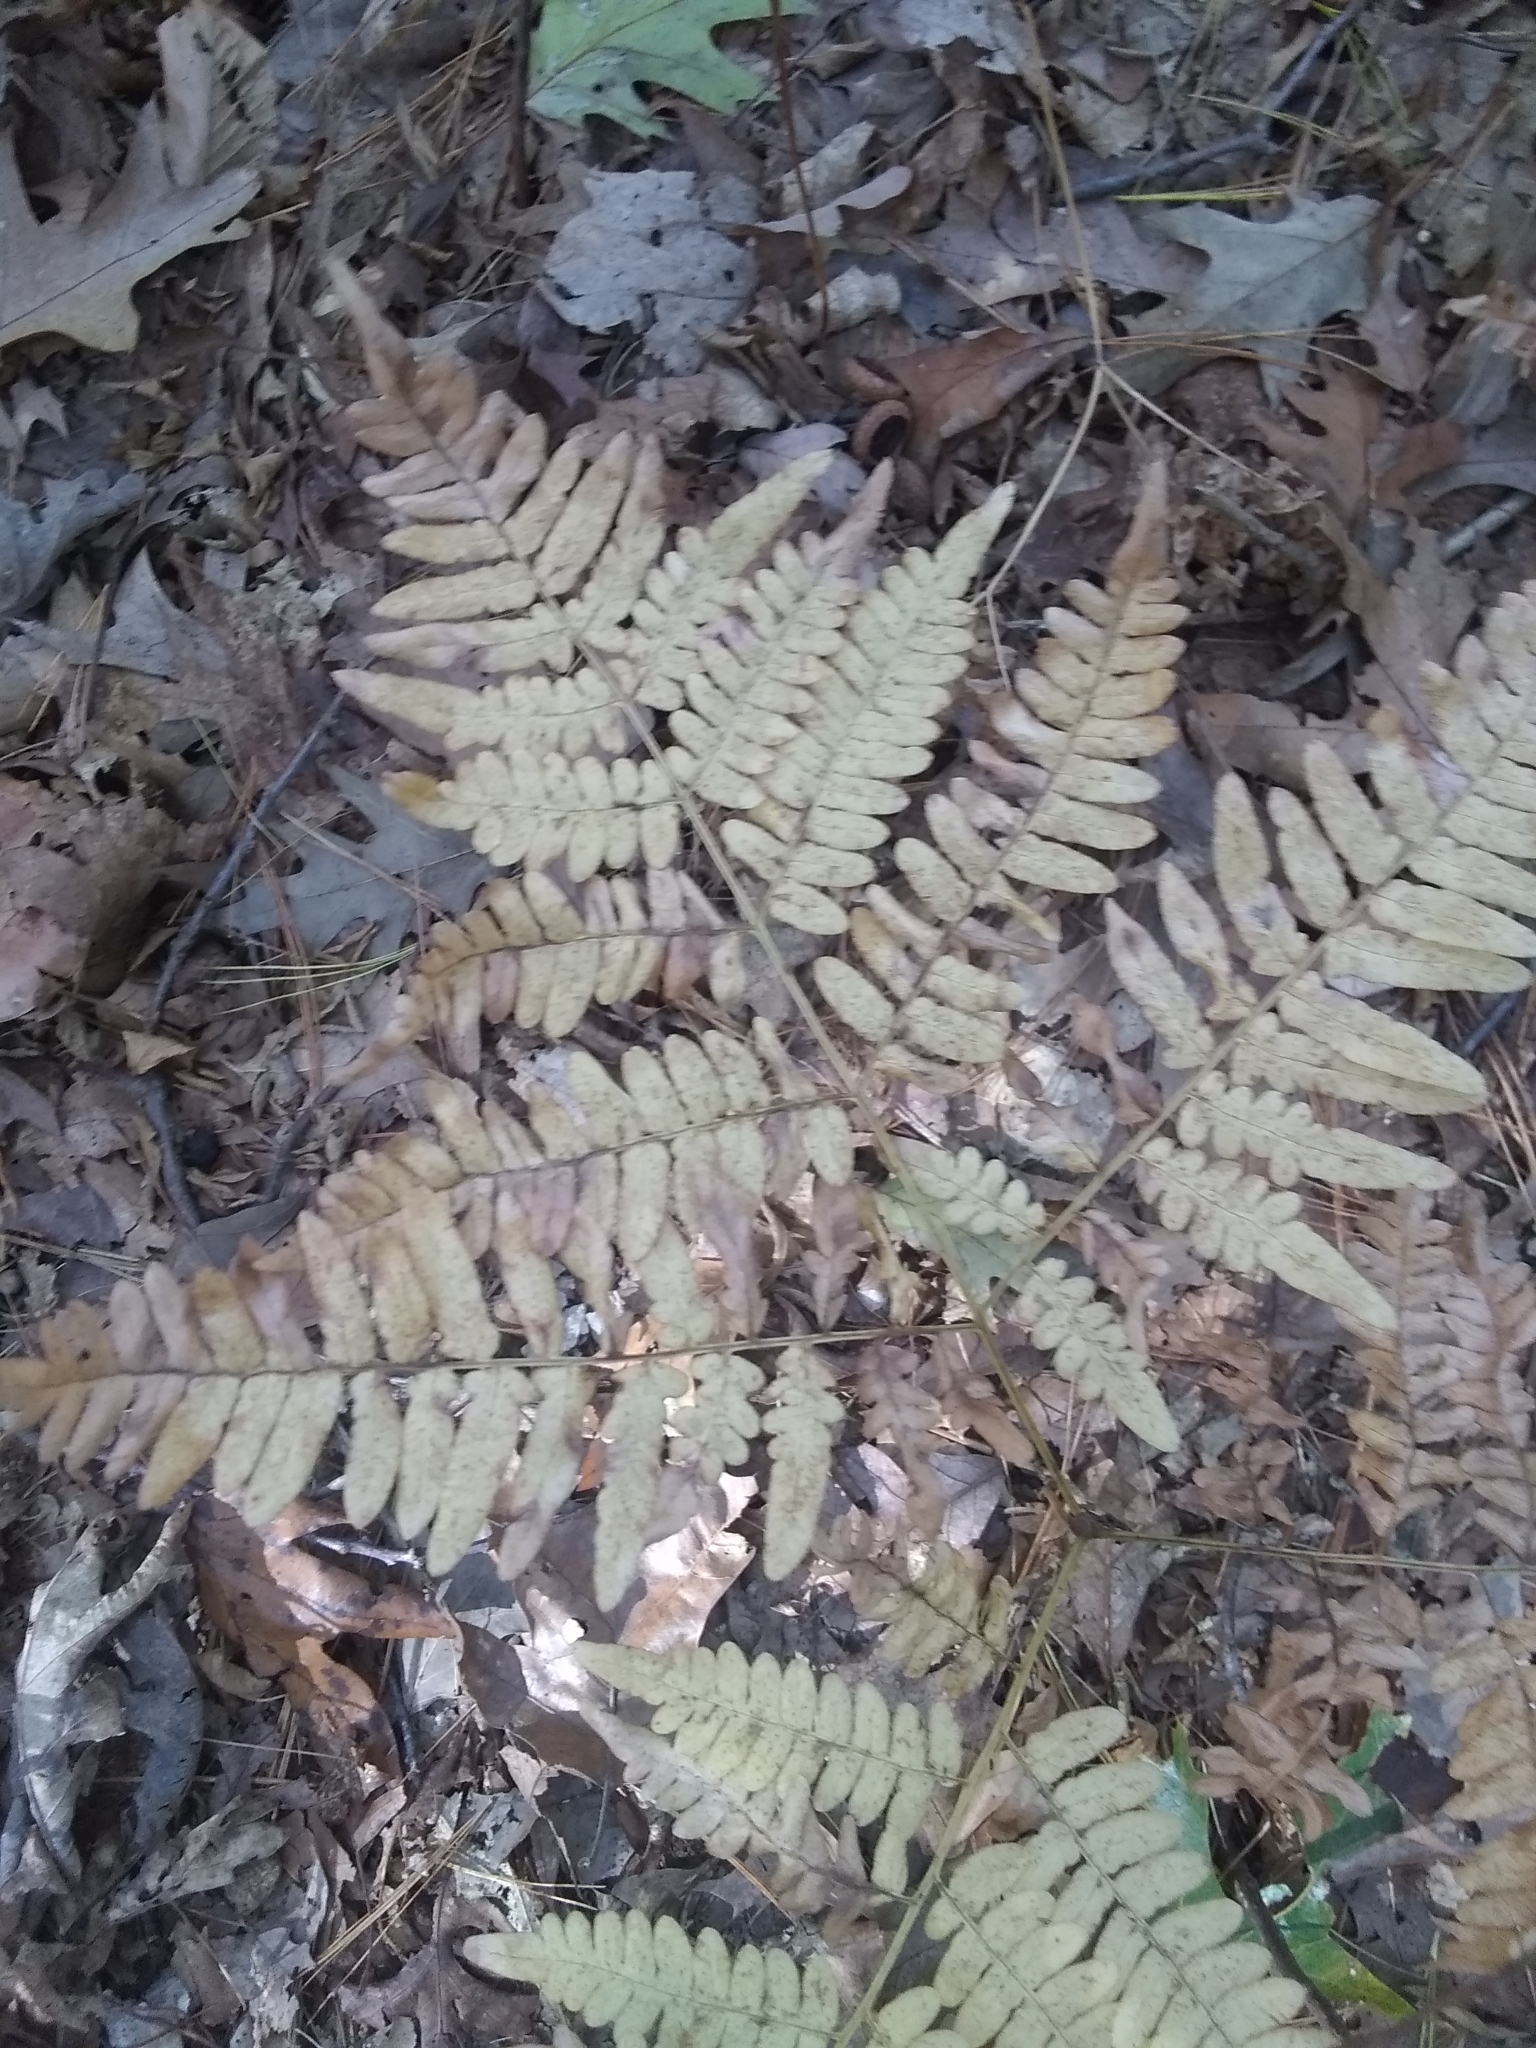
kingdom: Plantae
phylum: Tracheophyta
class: Polypodiopsida
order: Polypodiales
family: Dennstaedtiaceae
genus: Pteridium
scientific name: Pteridium aquilinum
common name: Bracken
